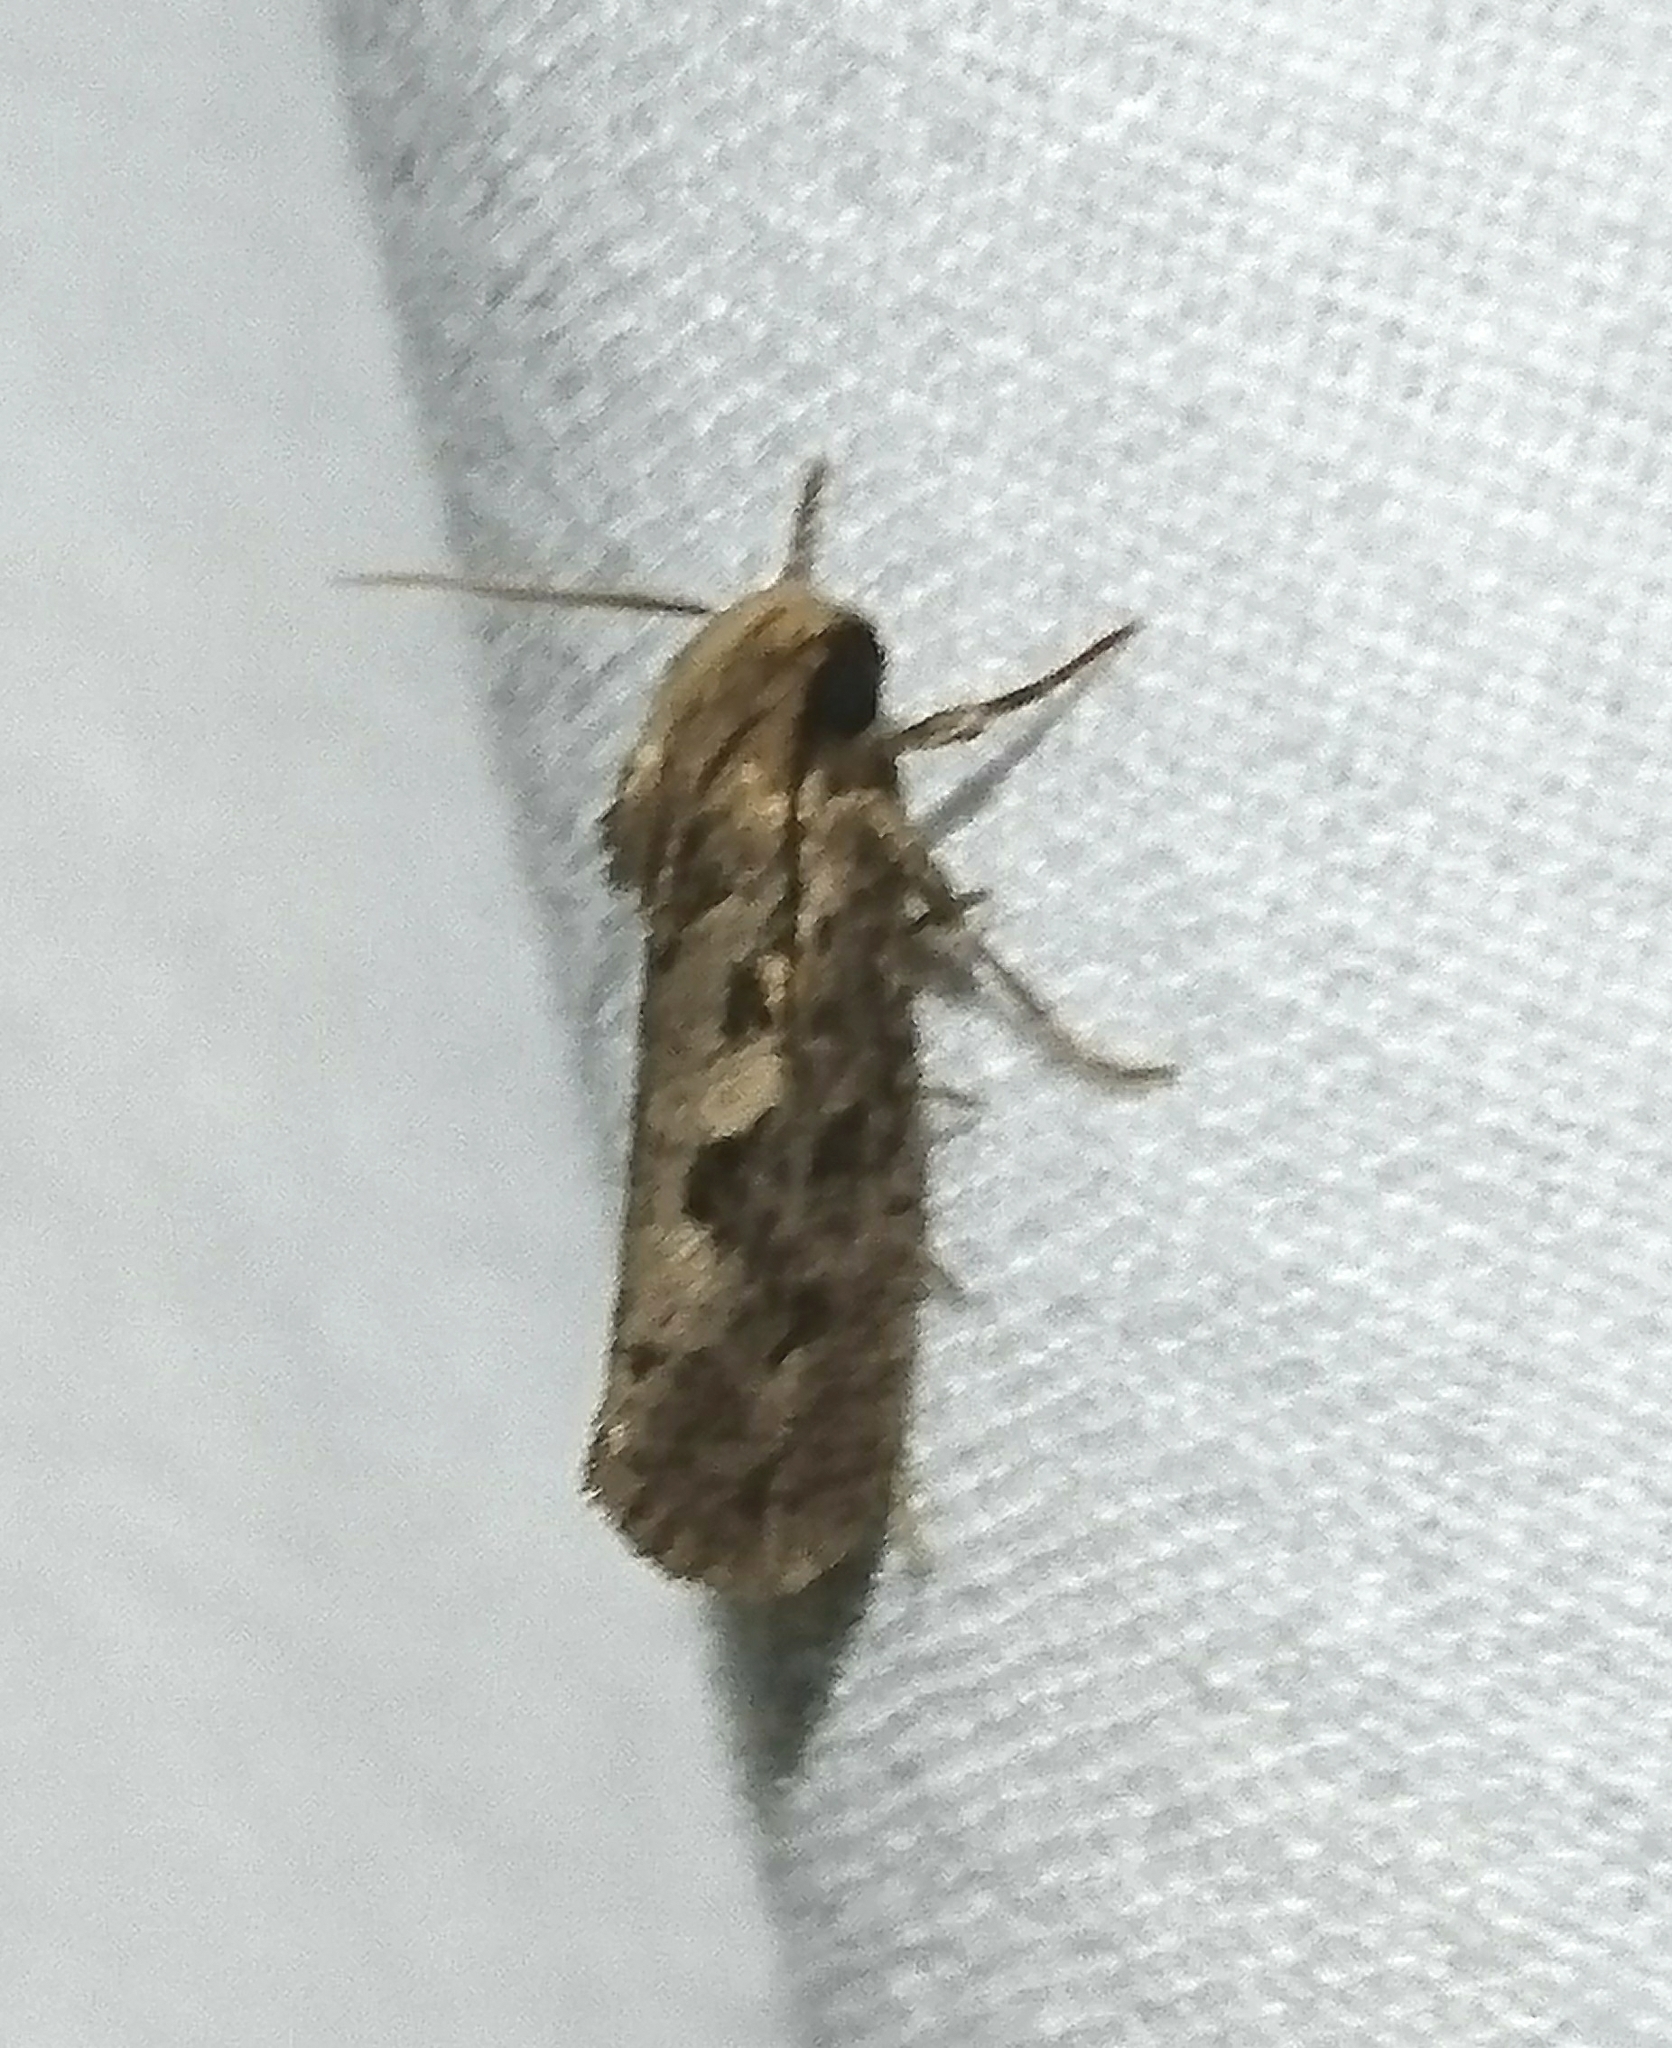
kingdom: Animalia
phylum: Arthropoda
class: Insecta
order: Lepidoptera
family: Tineidae
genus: Acrolophus
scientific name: Acrolophus popeanella
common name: Clemens' grass tubeworm moth
